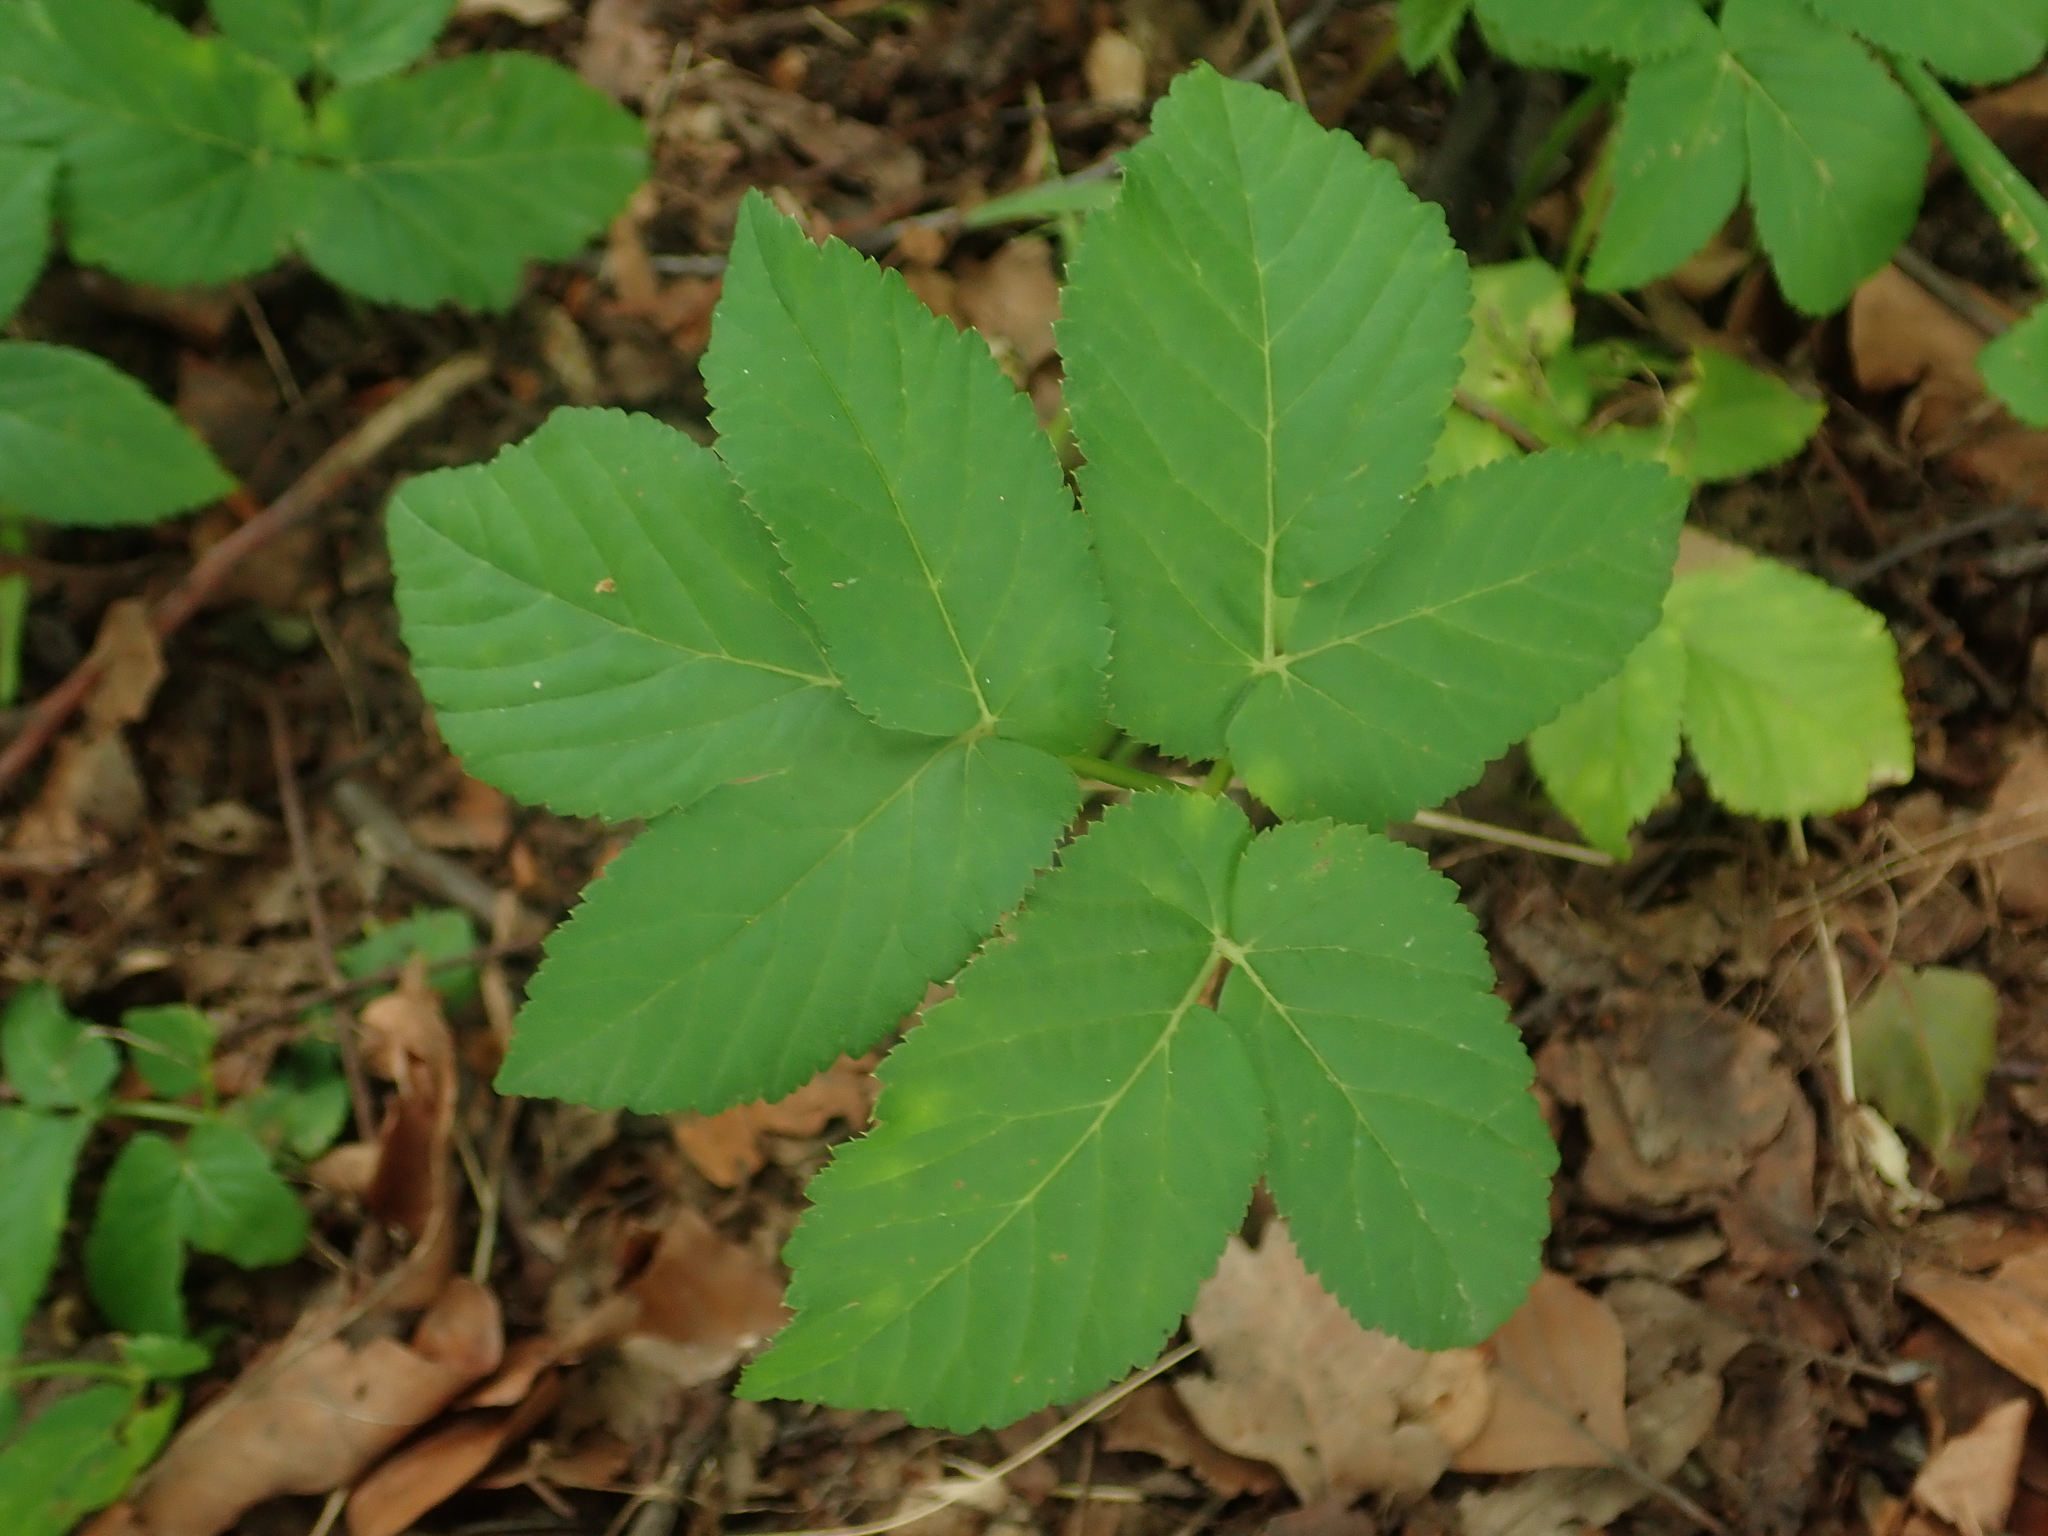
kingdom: Plantae
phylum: Tracheophyta
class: Magnoliopsida
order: Apiales
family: Apiaceae
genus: Aegopodium
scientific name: Aegopodium podagraria
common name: Ground-elder
